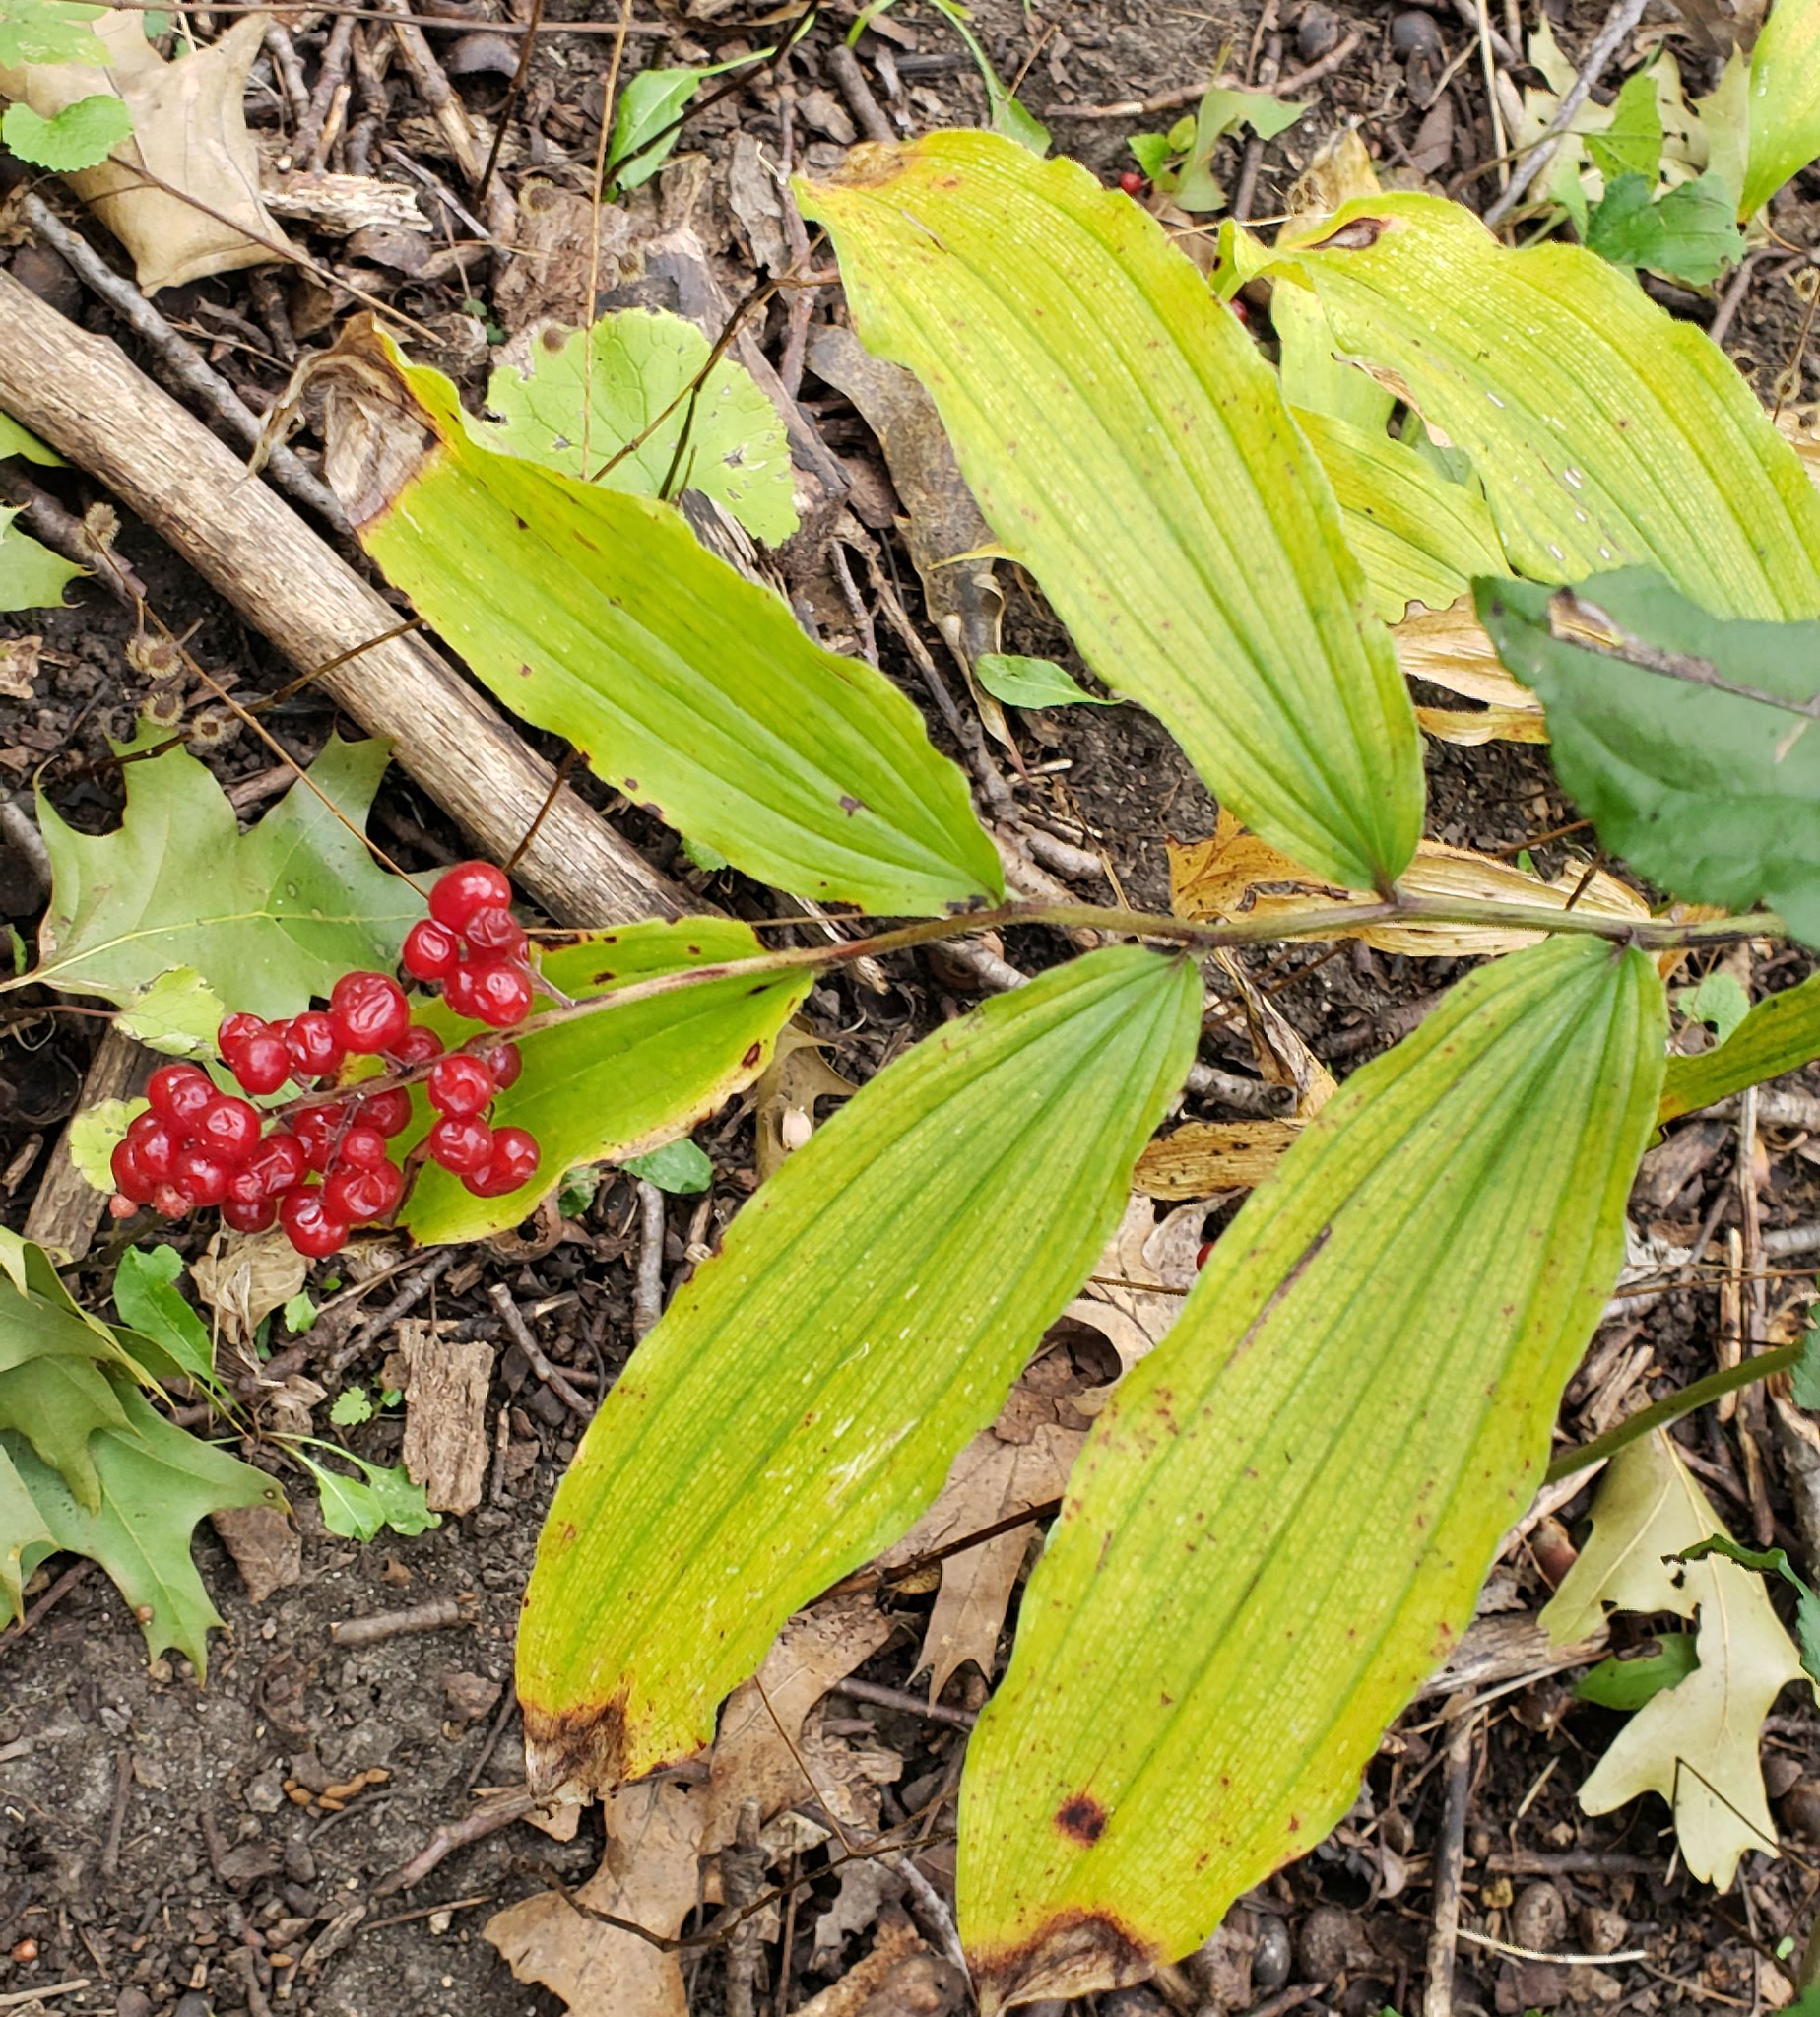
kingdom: Plantae
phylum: Tracheophyta
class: Liliopsida
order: Asparagales
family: Asparagaceae
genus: Maianthemum
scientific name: Maianthemum racemosum
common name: False spikenard
